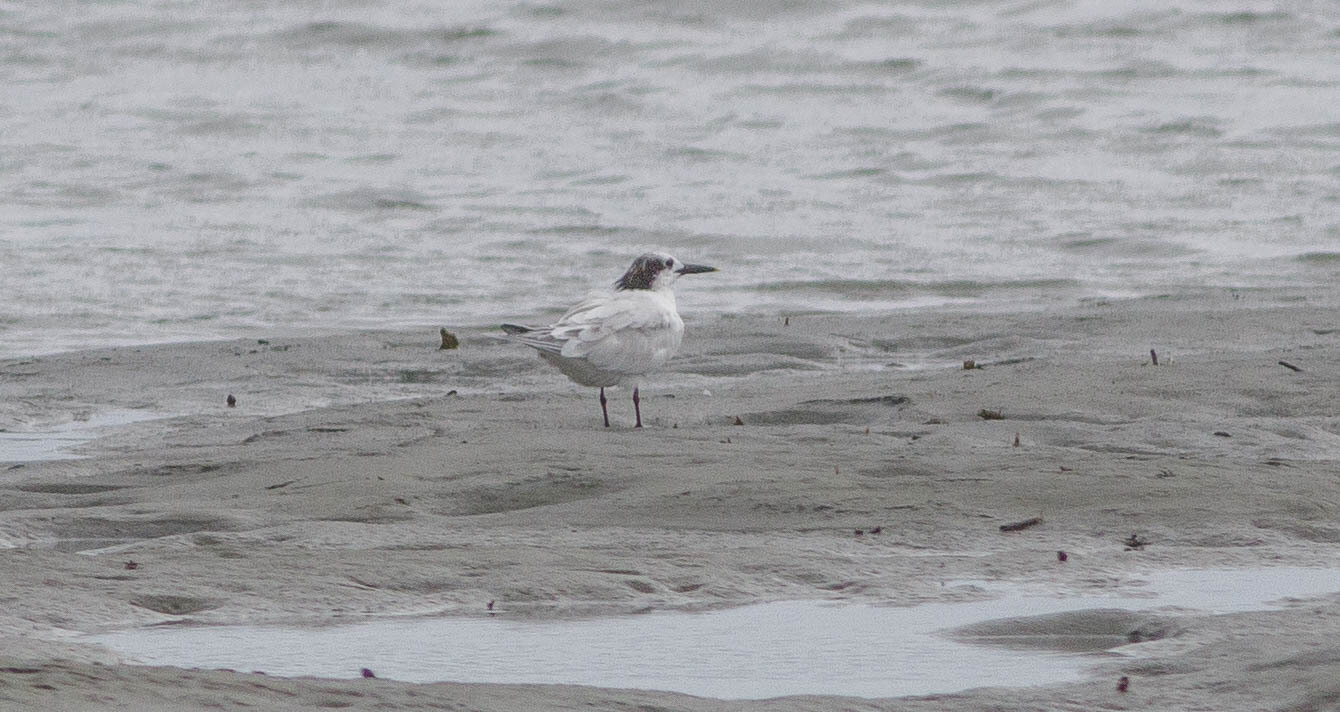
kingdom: Animalia
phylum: Chordata
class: Aves
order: Charadriiformes
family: Laridae
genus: Thalasseus
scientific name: Thalasseus sandvicensis
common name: Sandwich tern
